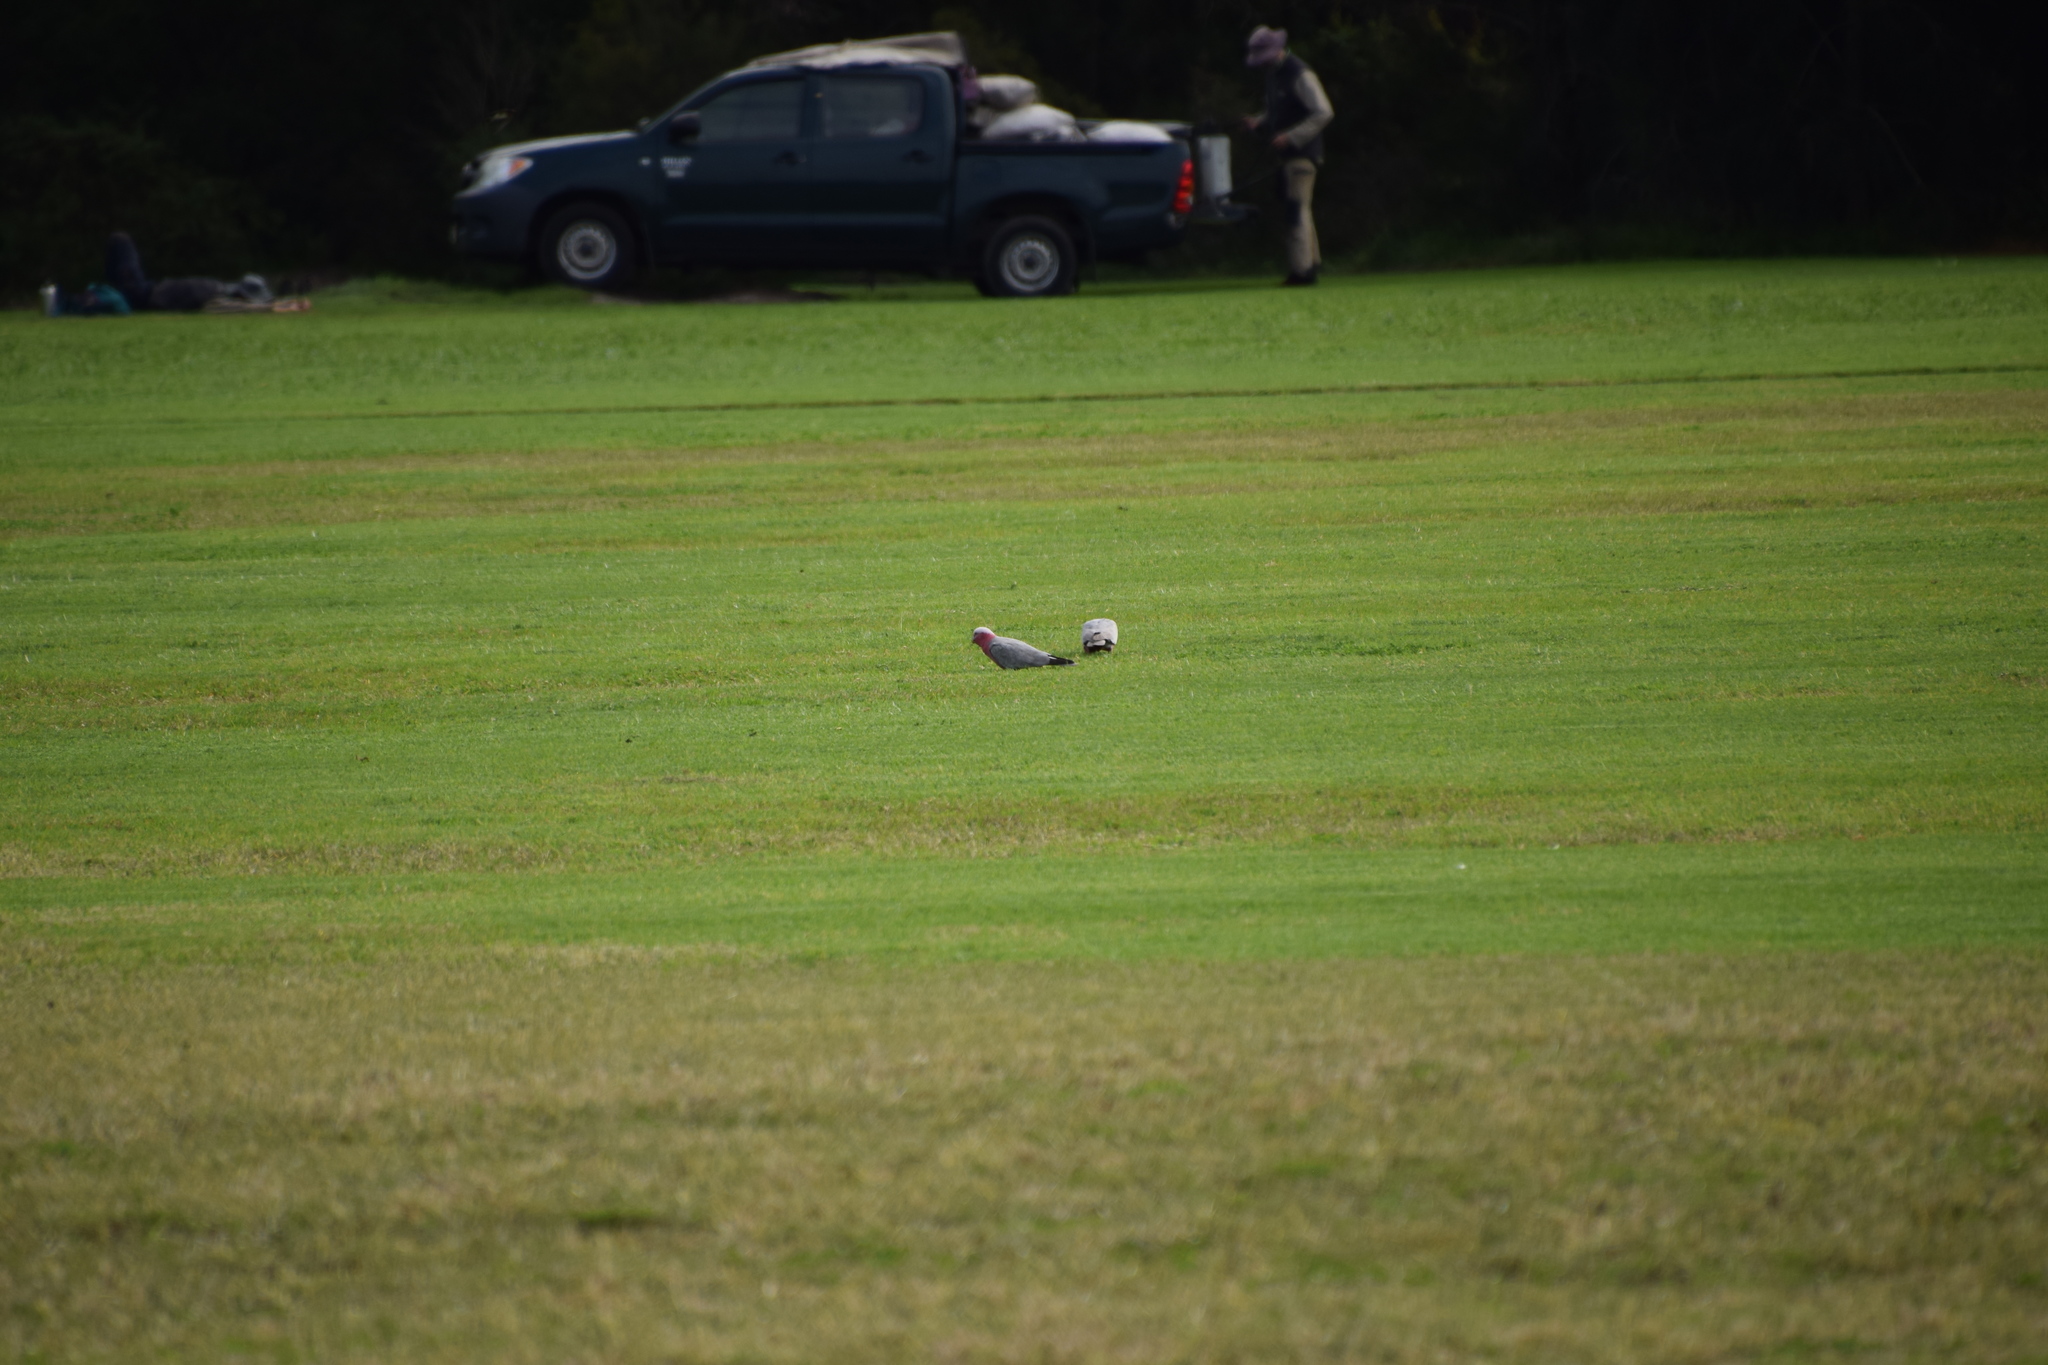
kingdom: Animalia
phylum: Chordata
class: Aves
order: Psittaciformes
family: Psittacidae
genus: Eolophus
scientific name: Eolophus roseicapilla
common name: Galah
